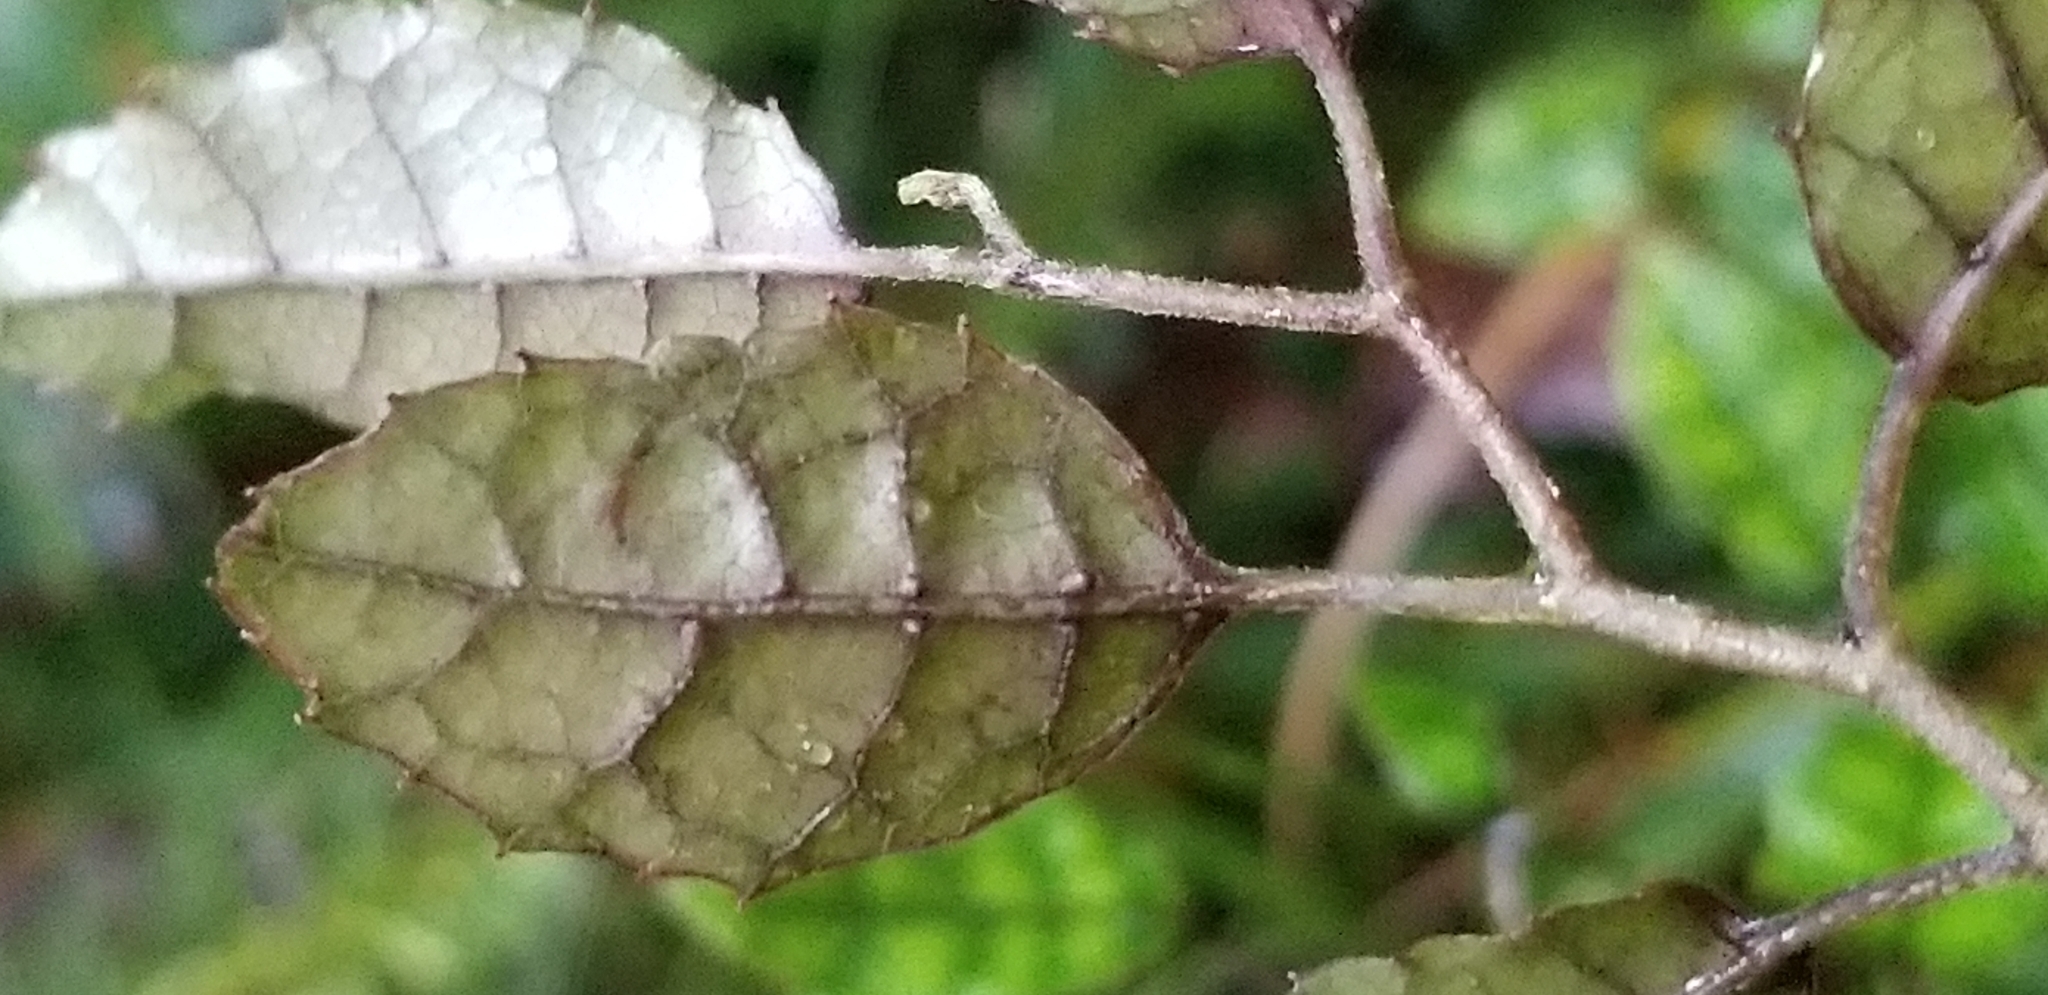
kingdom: Plantae
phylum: Tracheophyta
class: Magnoliopsida
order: Asterales
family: Rousseaceae
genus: Carpodetus
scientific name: Carpodetus serratus
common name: White mapau
